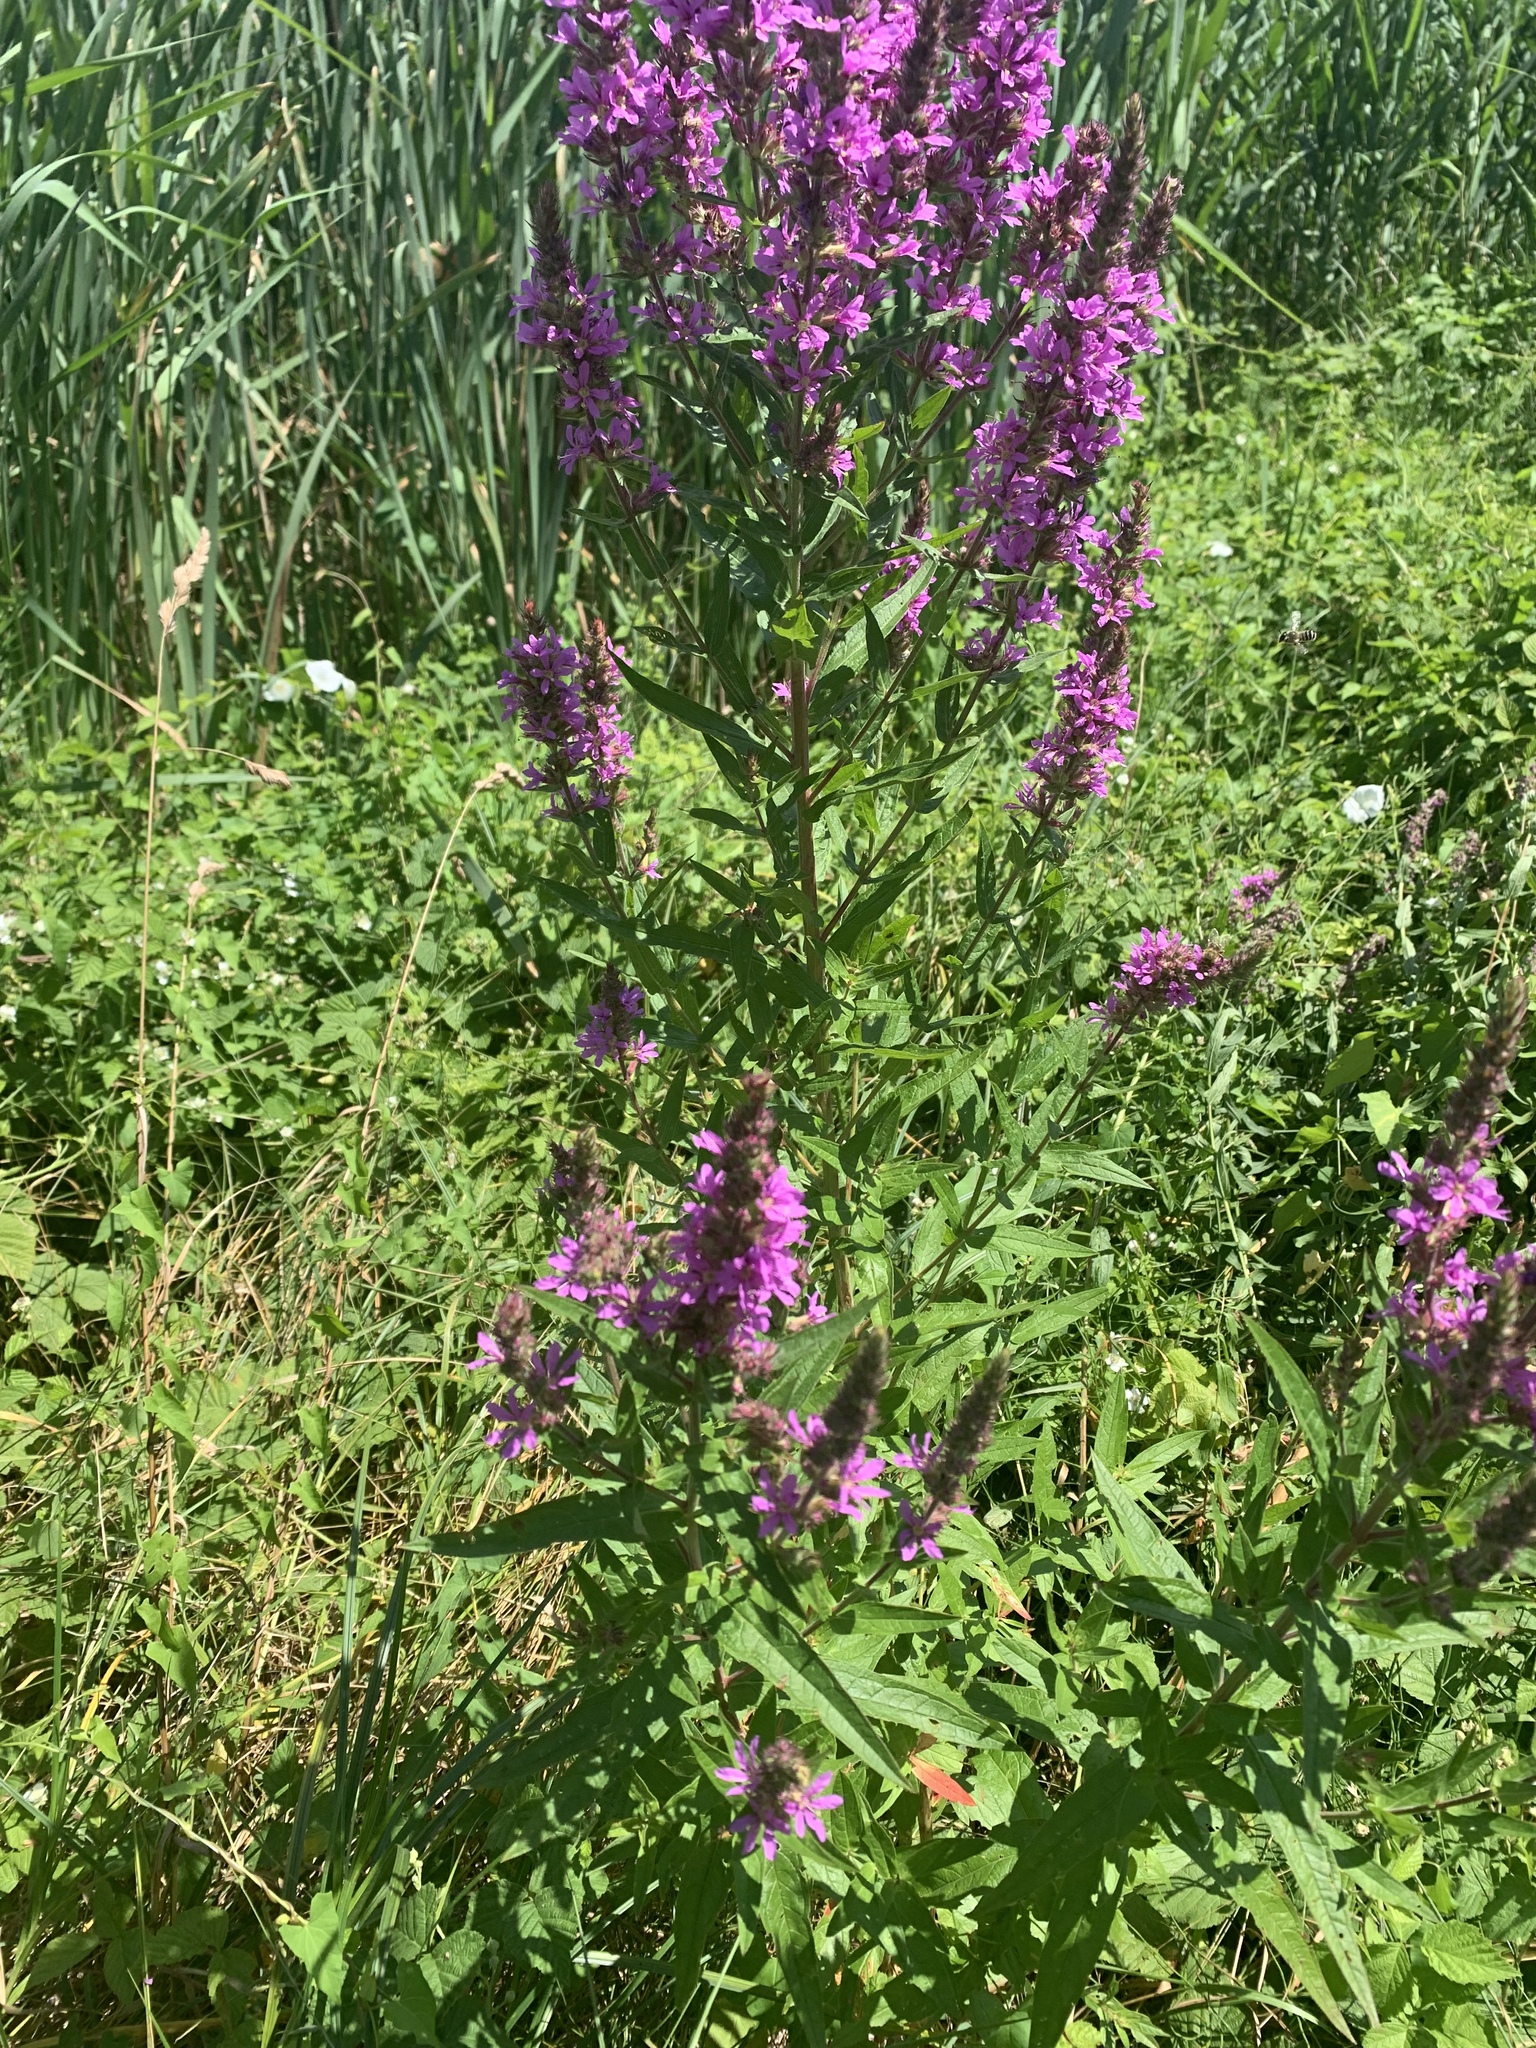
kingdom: Plantae
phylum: Tracheophyta
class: Magnoliopsida
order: Myrtales
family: Lythraceae
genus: Lythrum
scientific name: Lythrum salicaria
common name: Purple loosestrife
